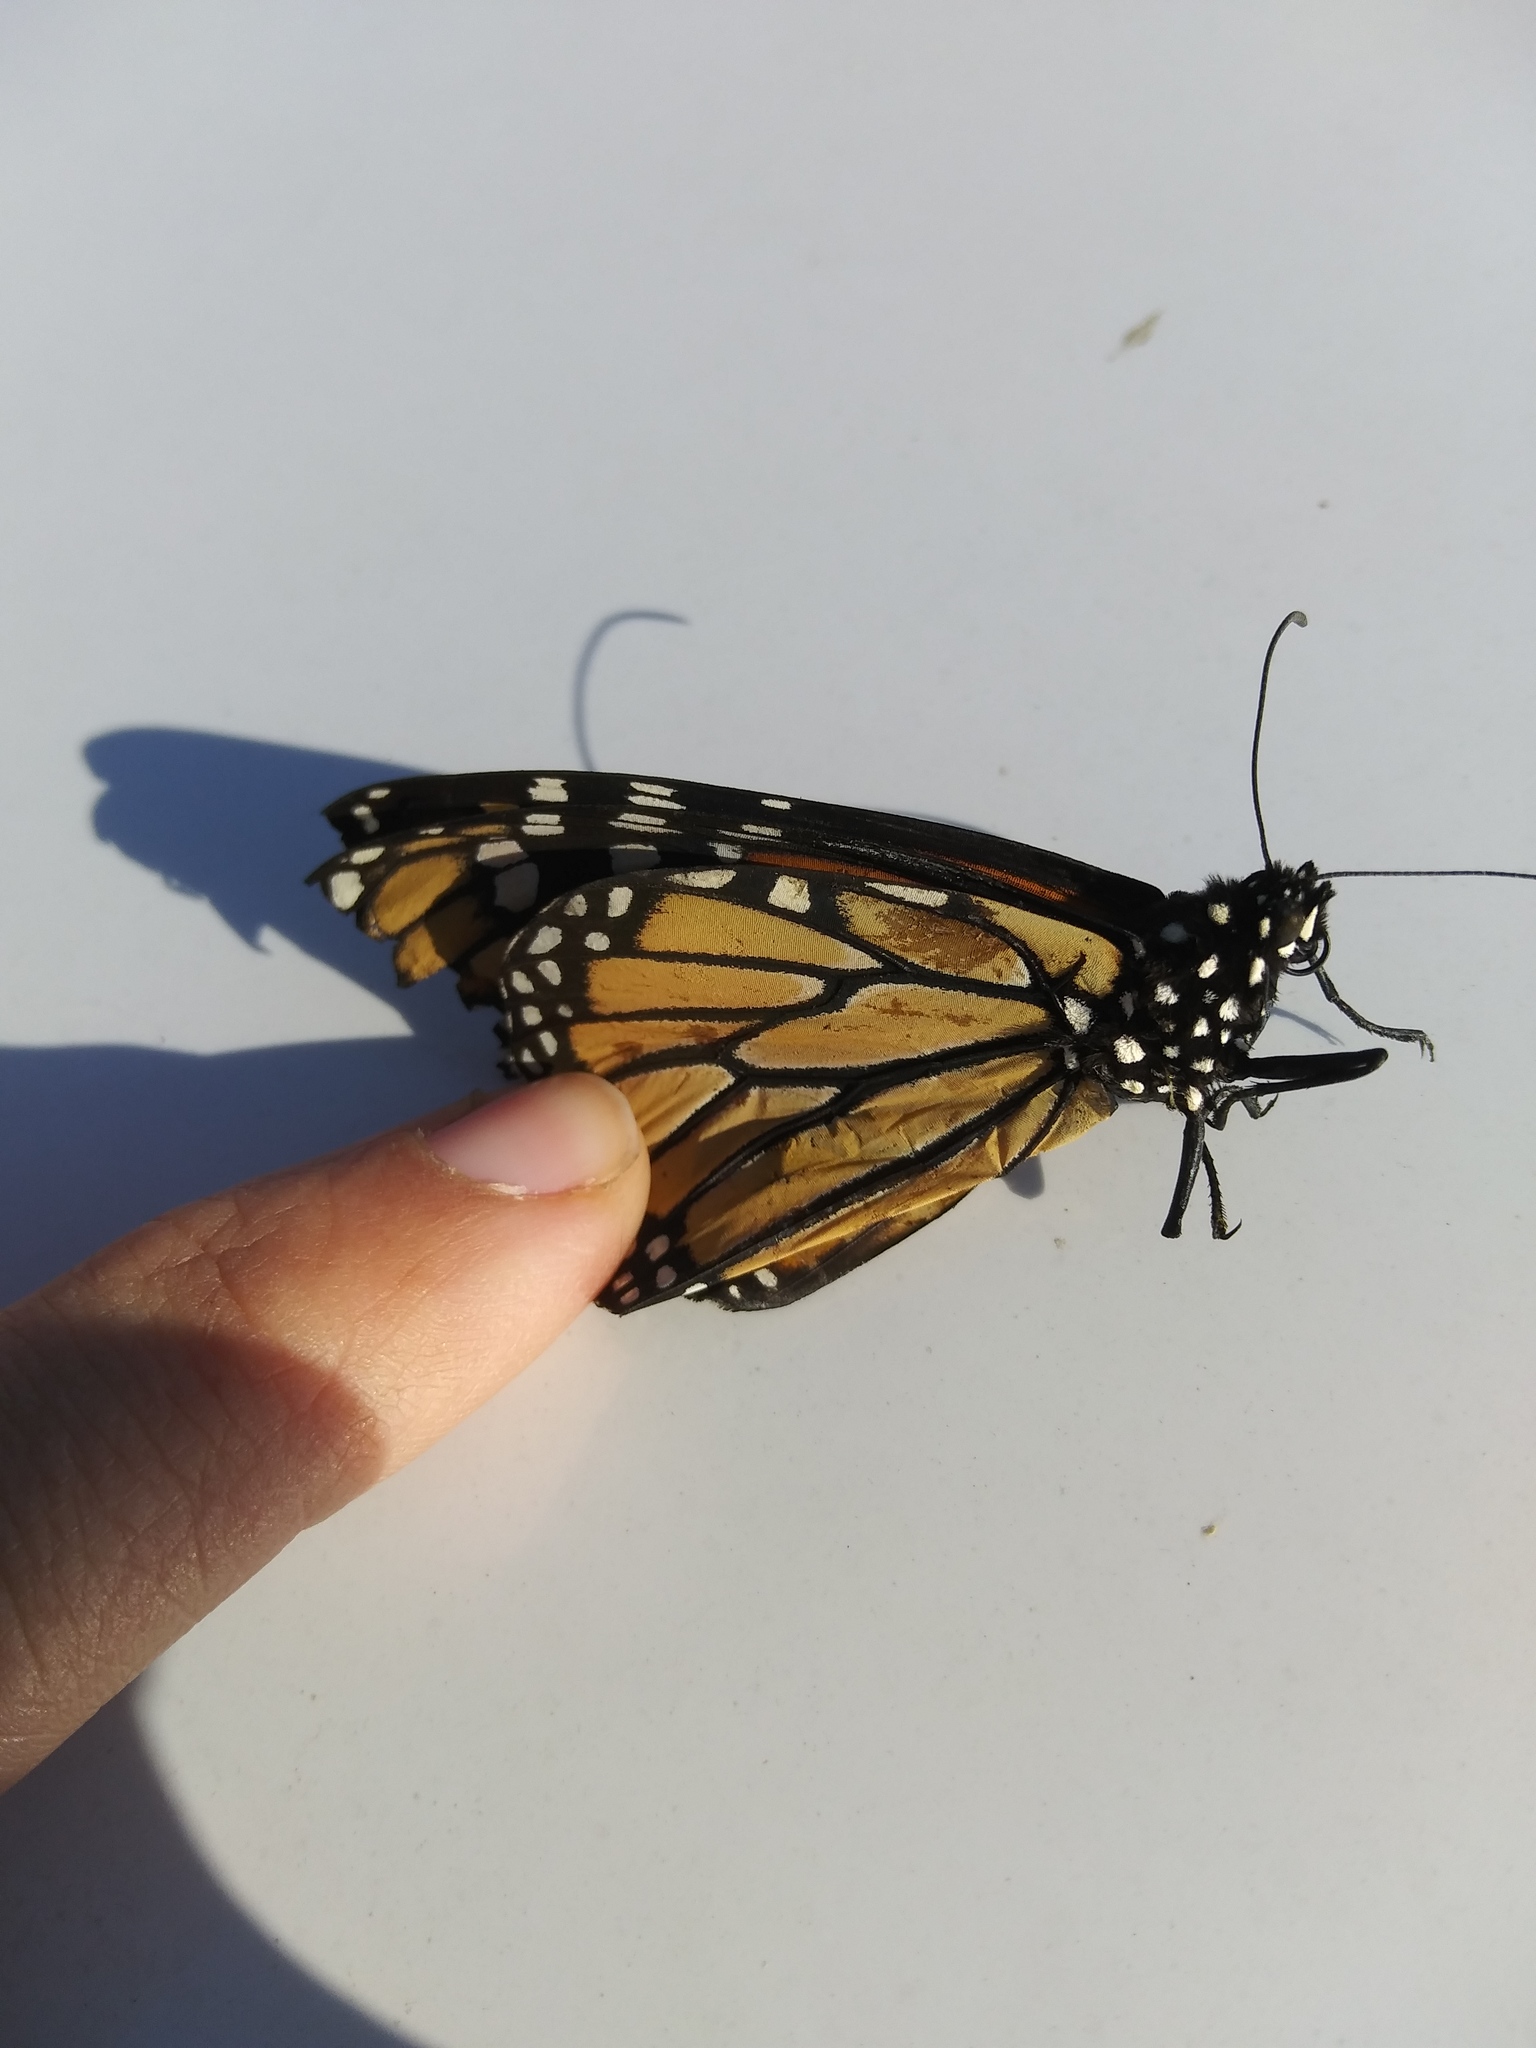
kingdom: Animalia
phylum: Arthropoda
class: Insecta
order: Lepidoptera
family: Nymphalidae
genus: Danaus
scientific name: Danaus plexippus
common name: Monarch
